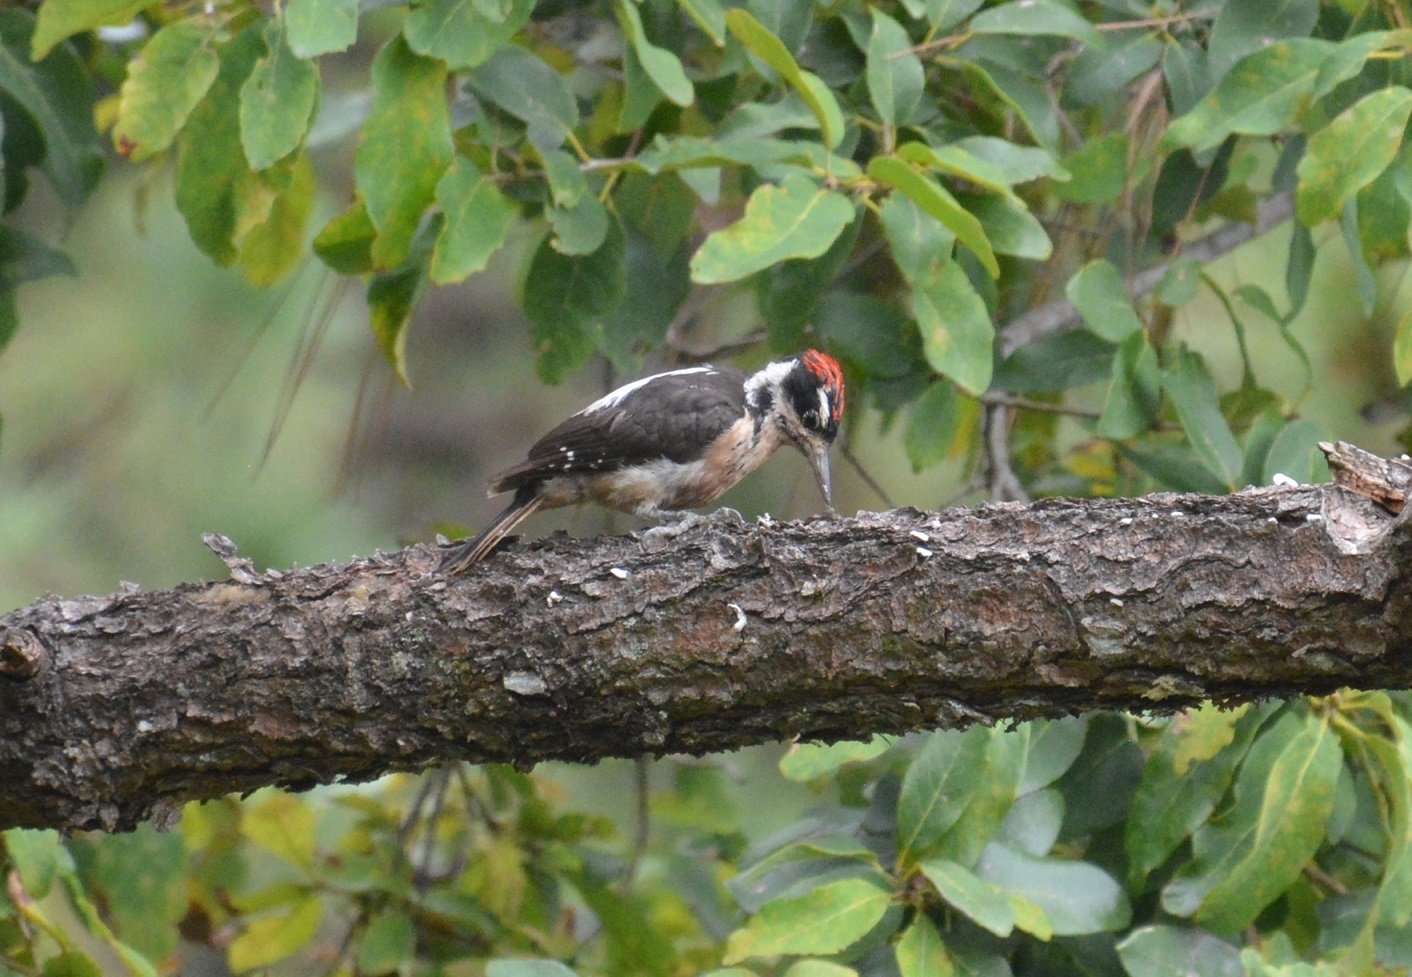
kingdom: Animalia
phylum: Chordata
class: Aves
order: Piciformes
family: Picidae
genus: Leuconotopicus
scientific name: Leuconotopicus villosus
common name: Hairy woodpecker
